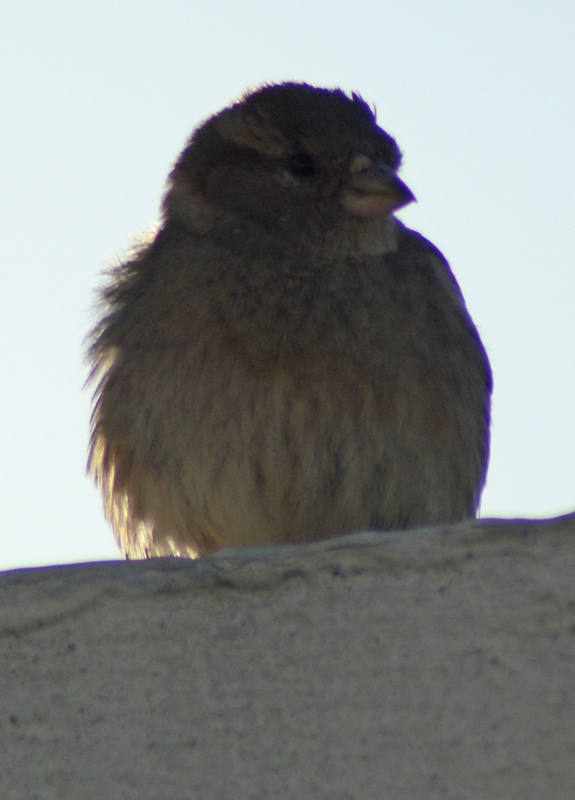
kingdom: Animalia
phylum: Chordata
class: Aves
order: Passeriformes
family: Passeridae
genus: Passer
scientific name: Passer domesticus
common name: House sparrow
